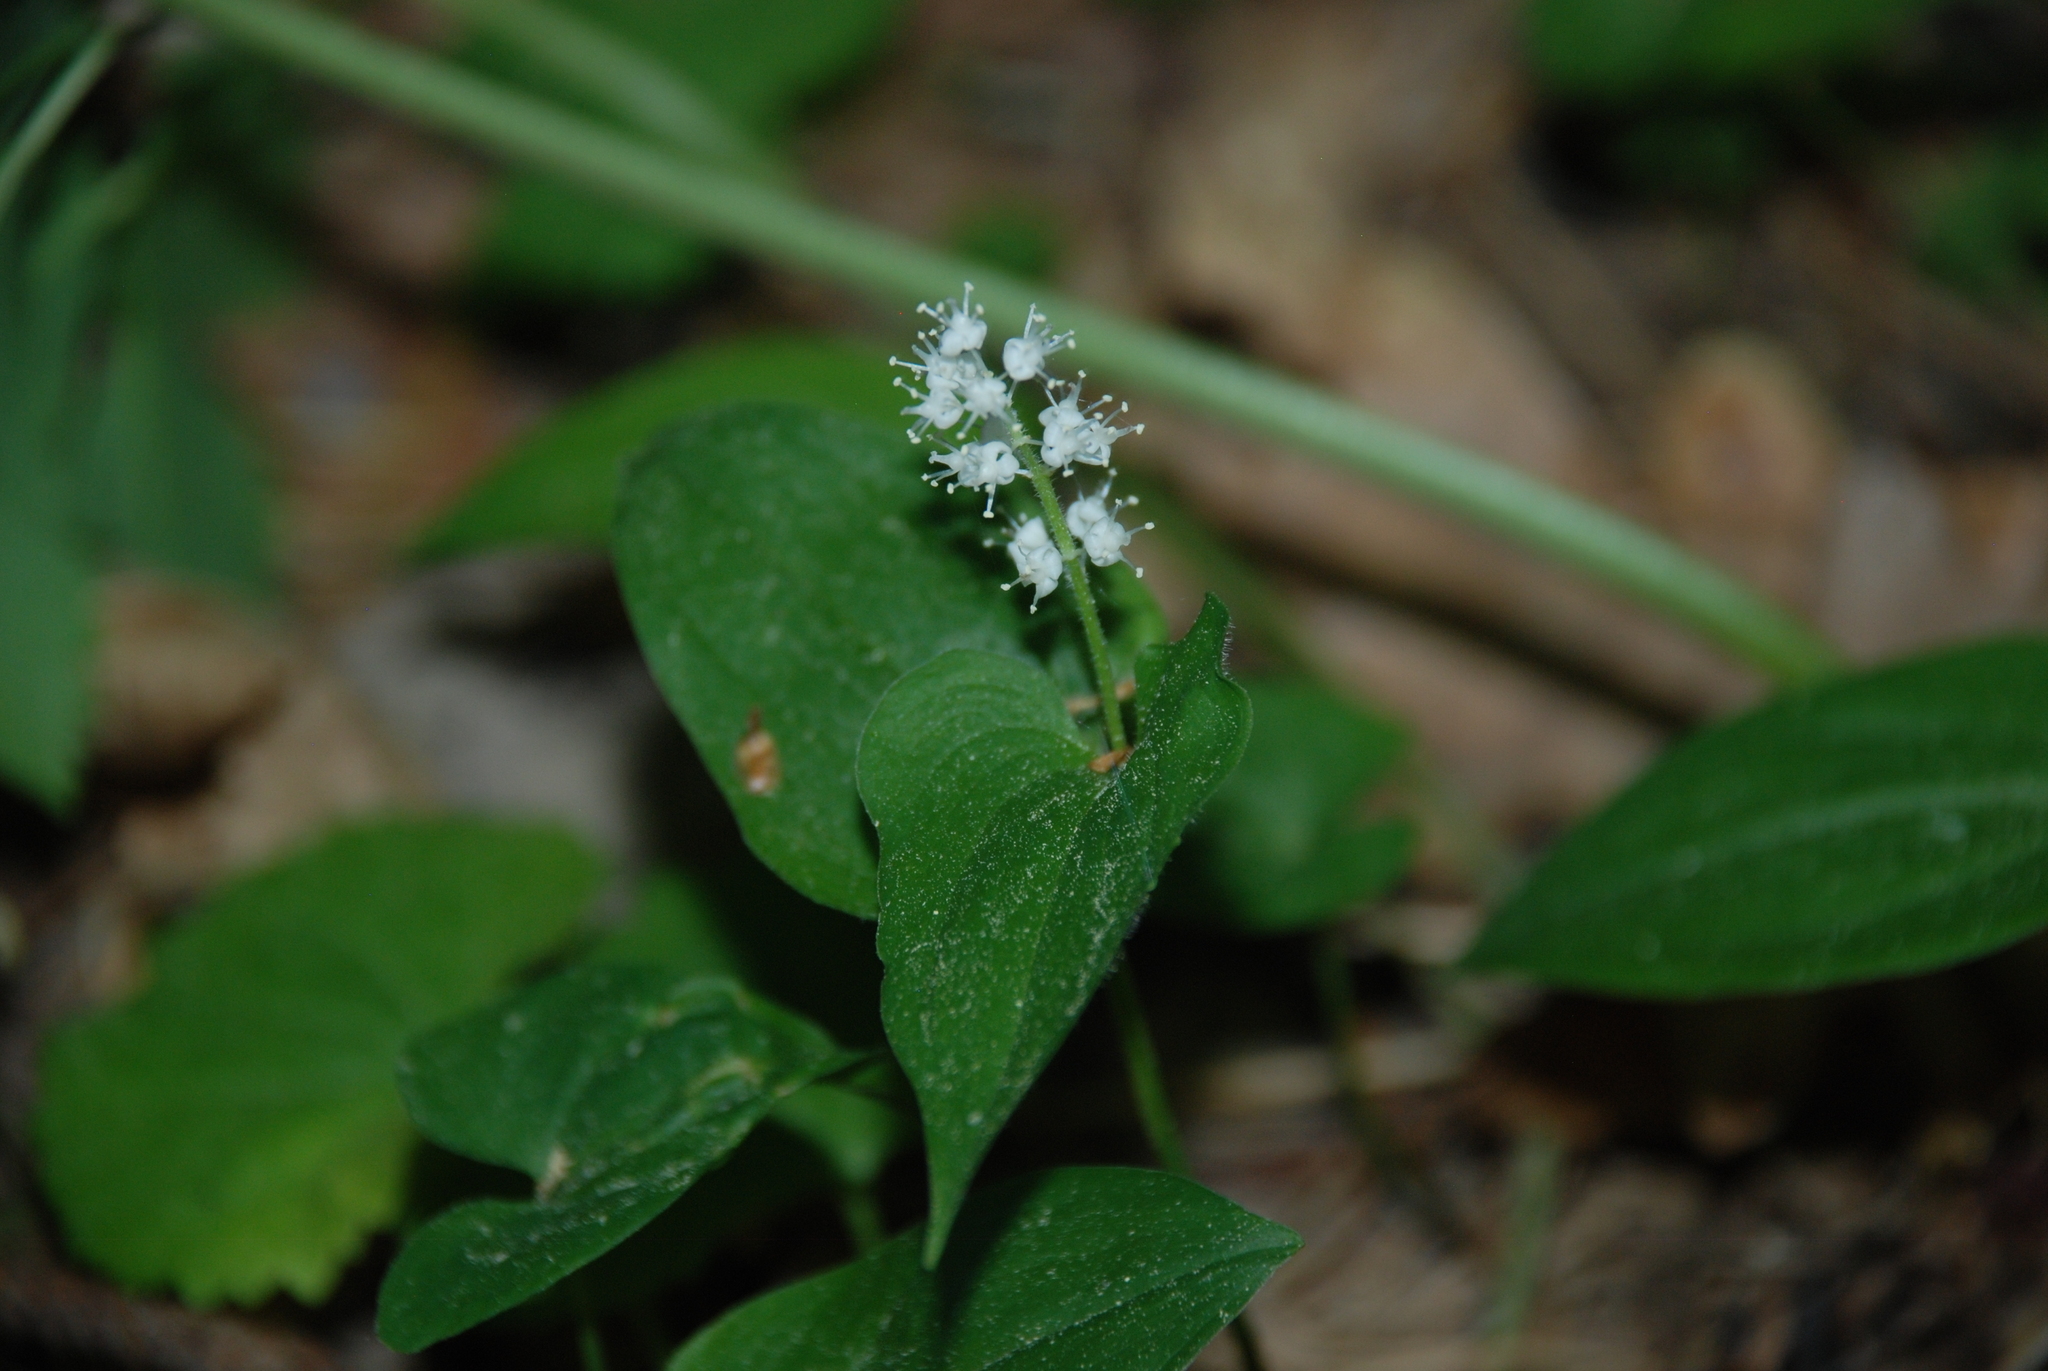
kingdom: Plantae
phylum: Tracheophyta
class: Liliopsida
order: Asparagales
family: Asparagaceae
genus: Maianthemum
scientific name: Maianthemum bifolium
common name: May lily
